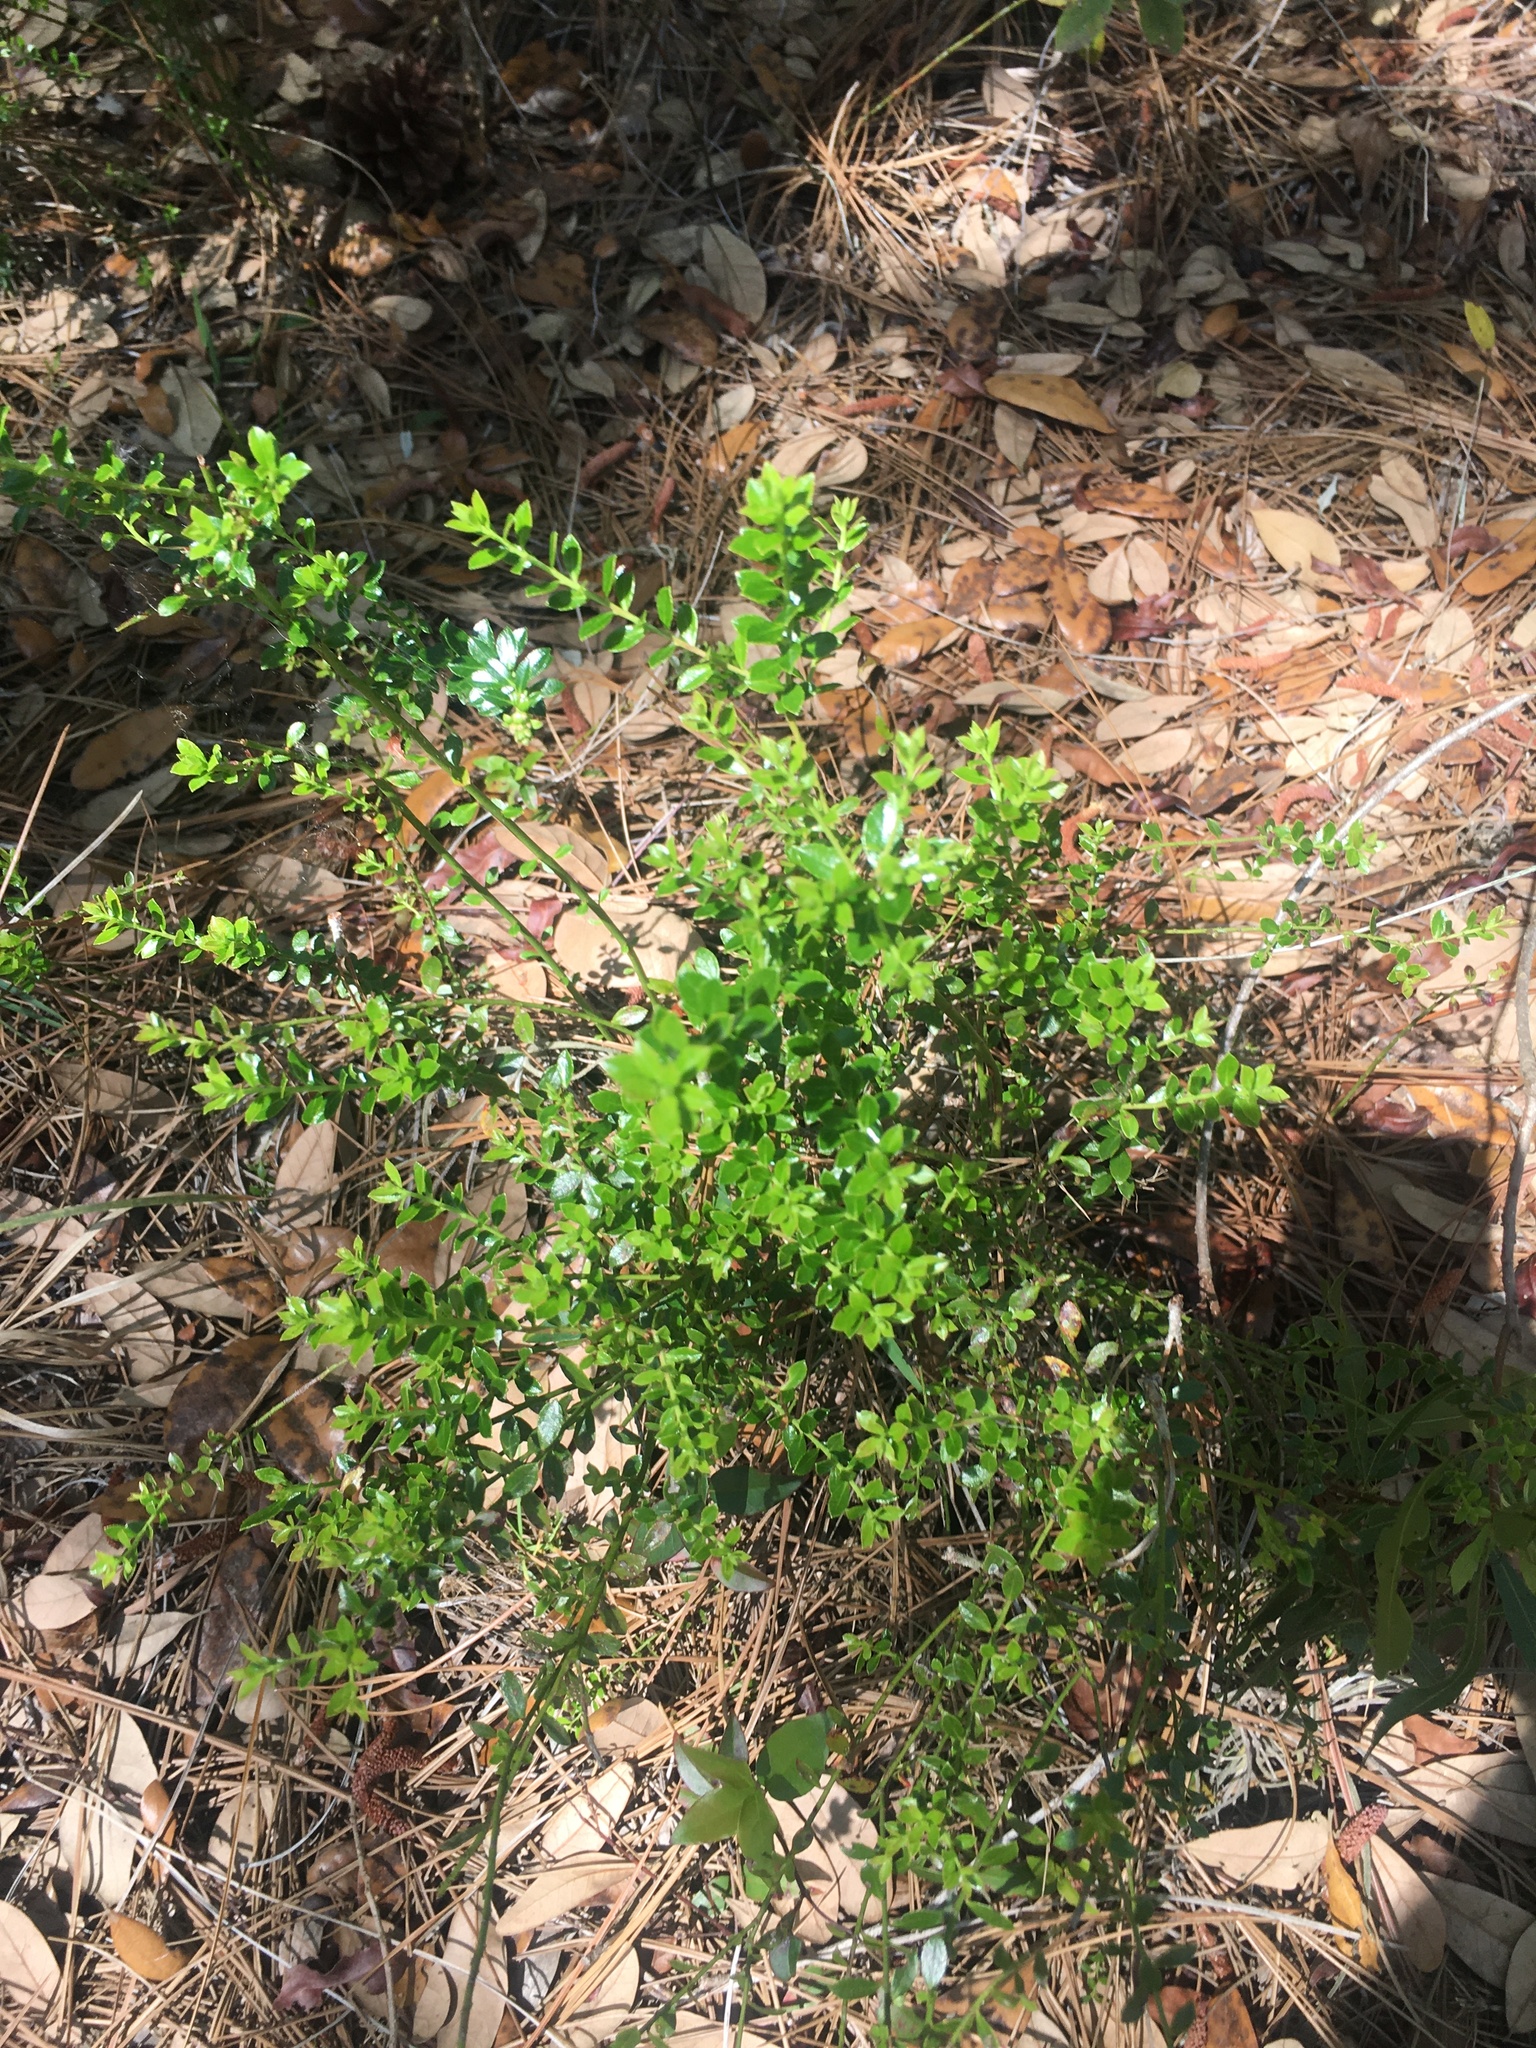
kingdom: Plantae
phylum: Tracheophyta
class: Magnoliopsida
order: Ericales
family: Ericaceae
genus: Vaccinium
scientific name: Vaccinium myrsinites
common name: Evergreen blueberry
